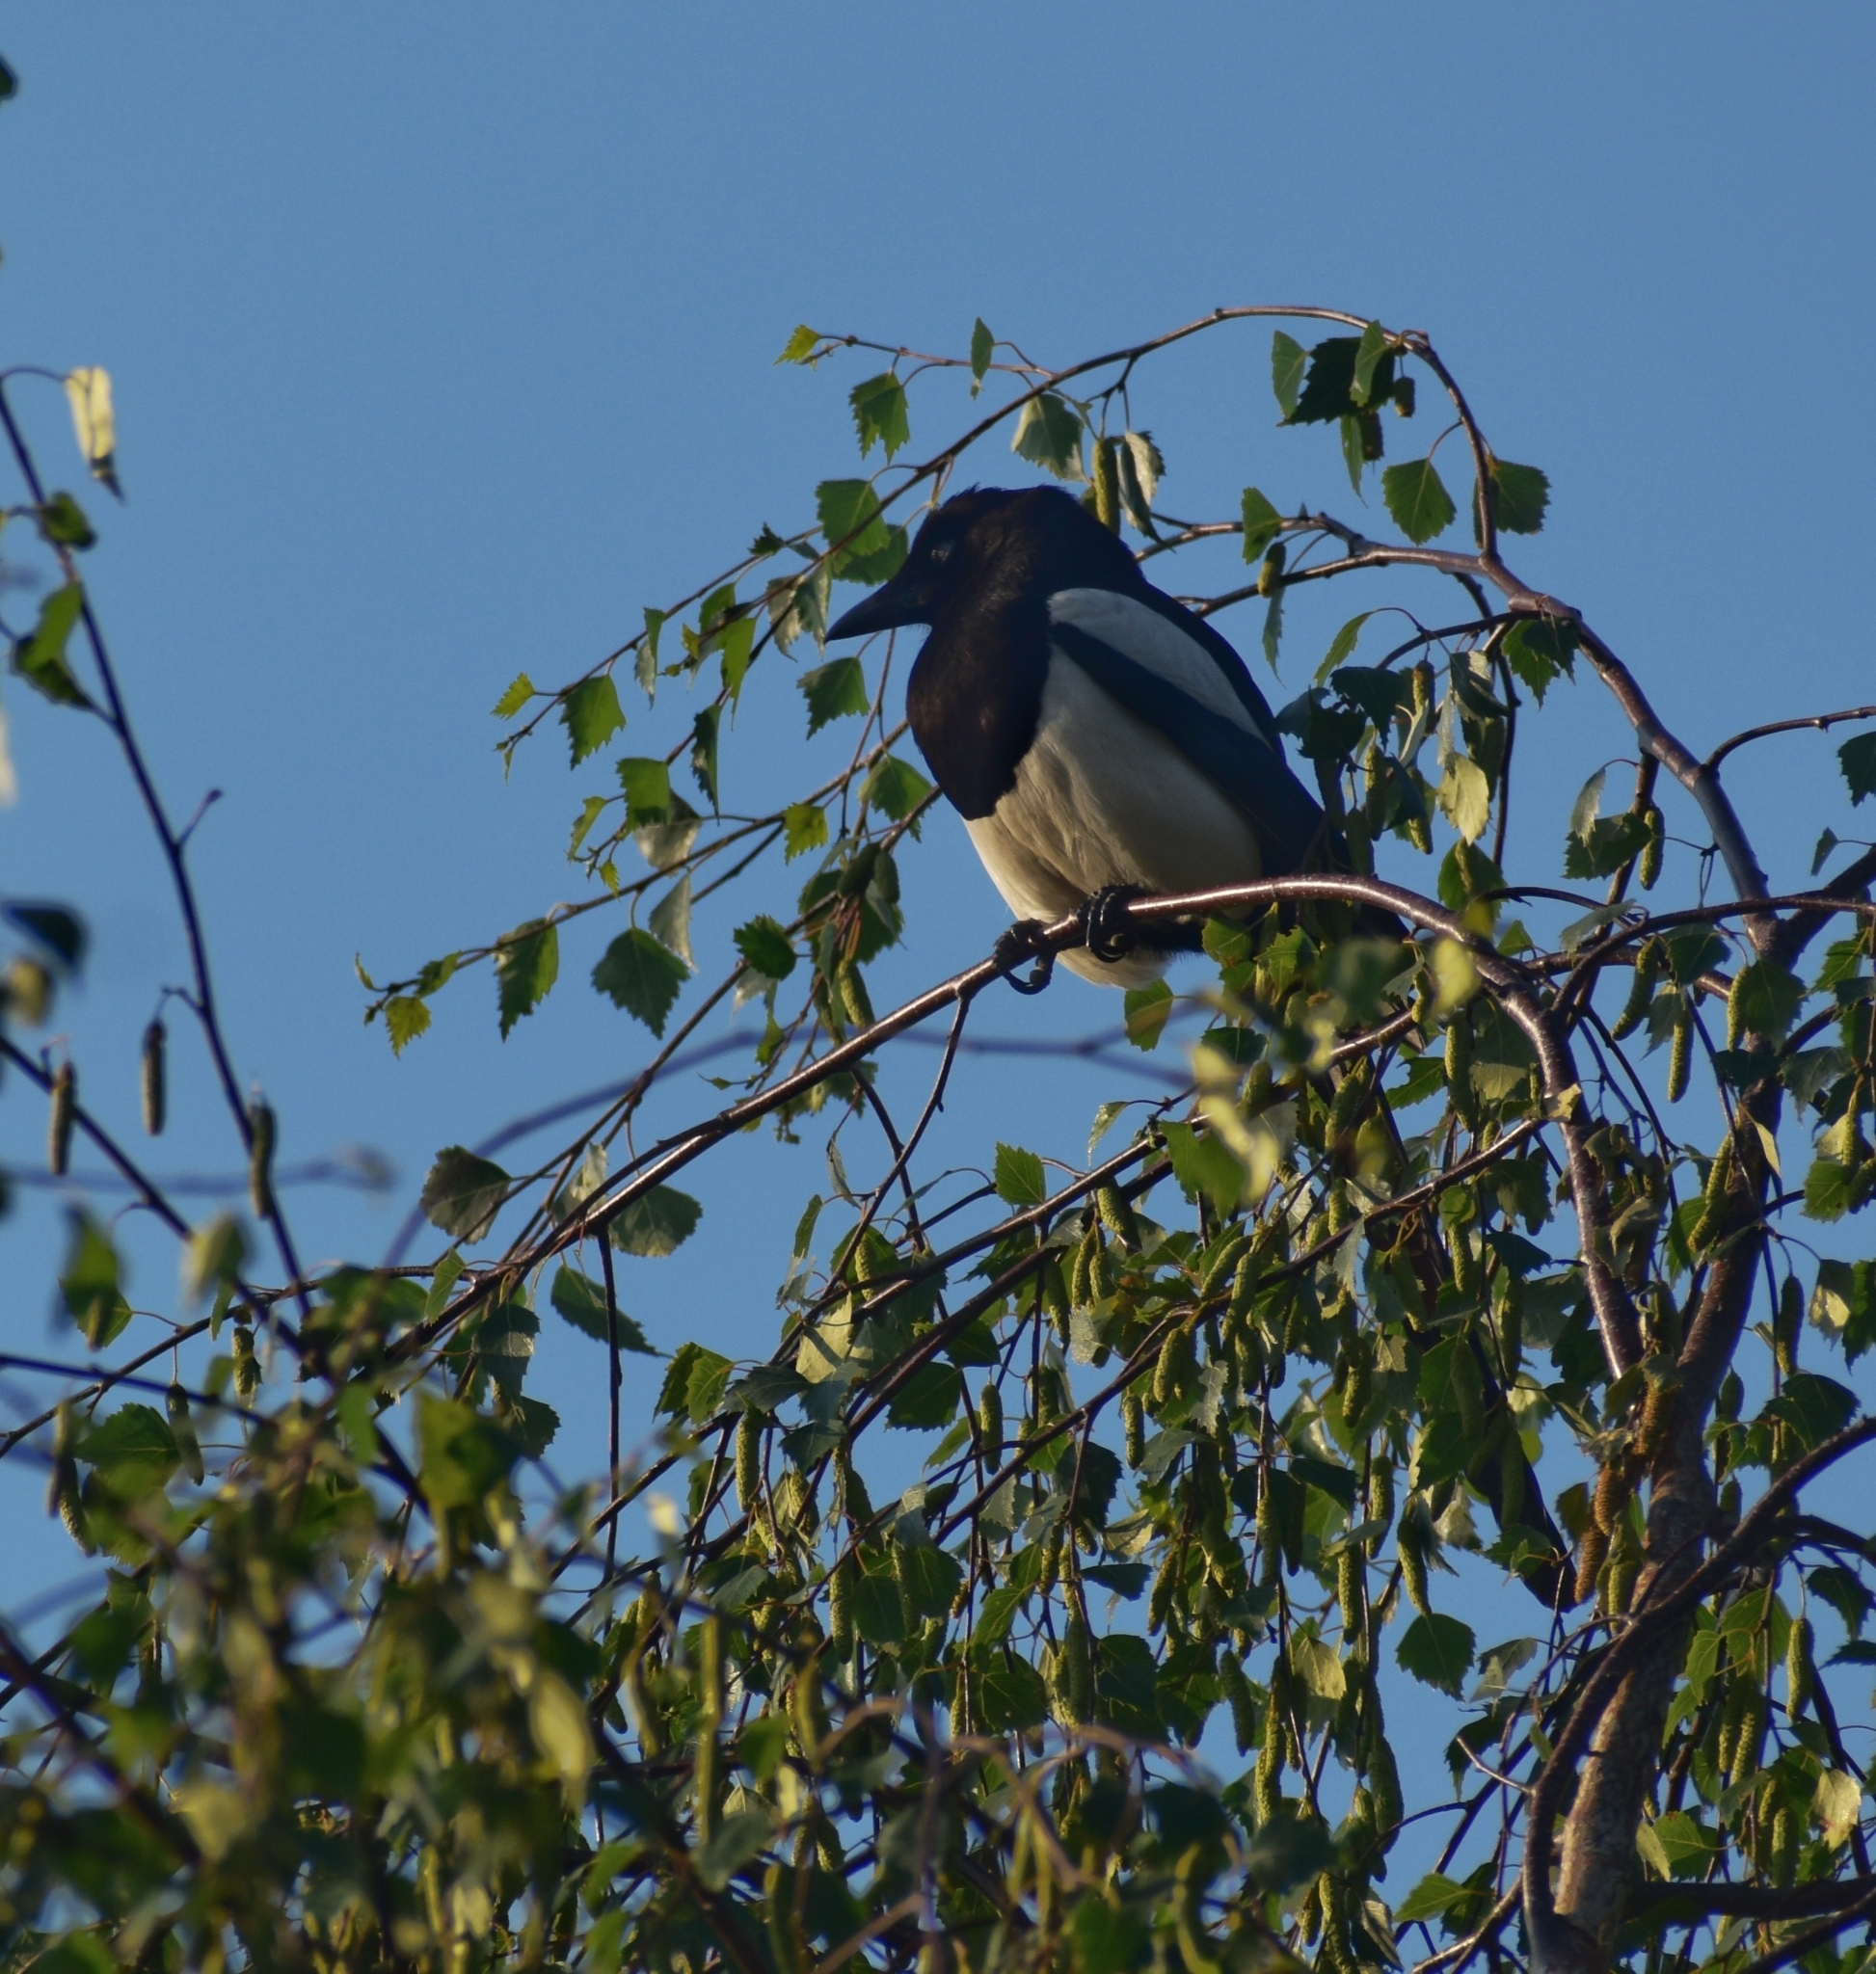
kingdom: Animalia
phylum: Chordata
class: Aves
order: Passeriformes
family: Corvidae
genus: Pica
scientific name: Pica pica
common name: Eurasian magpie
